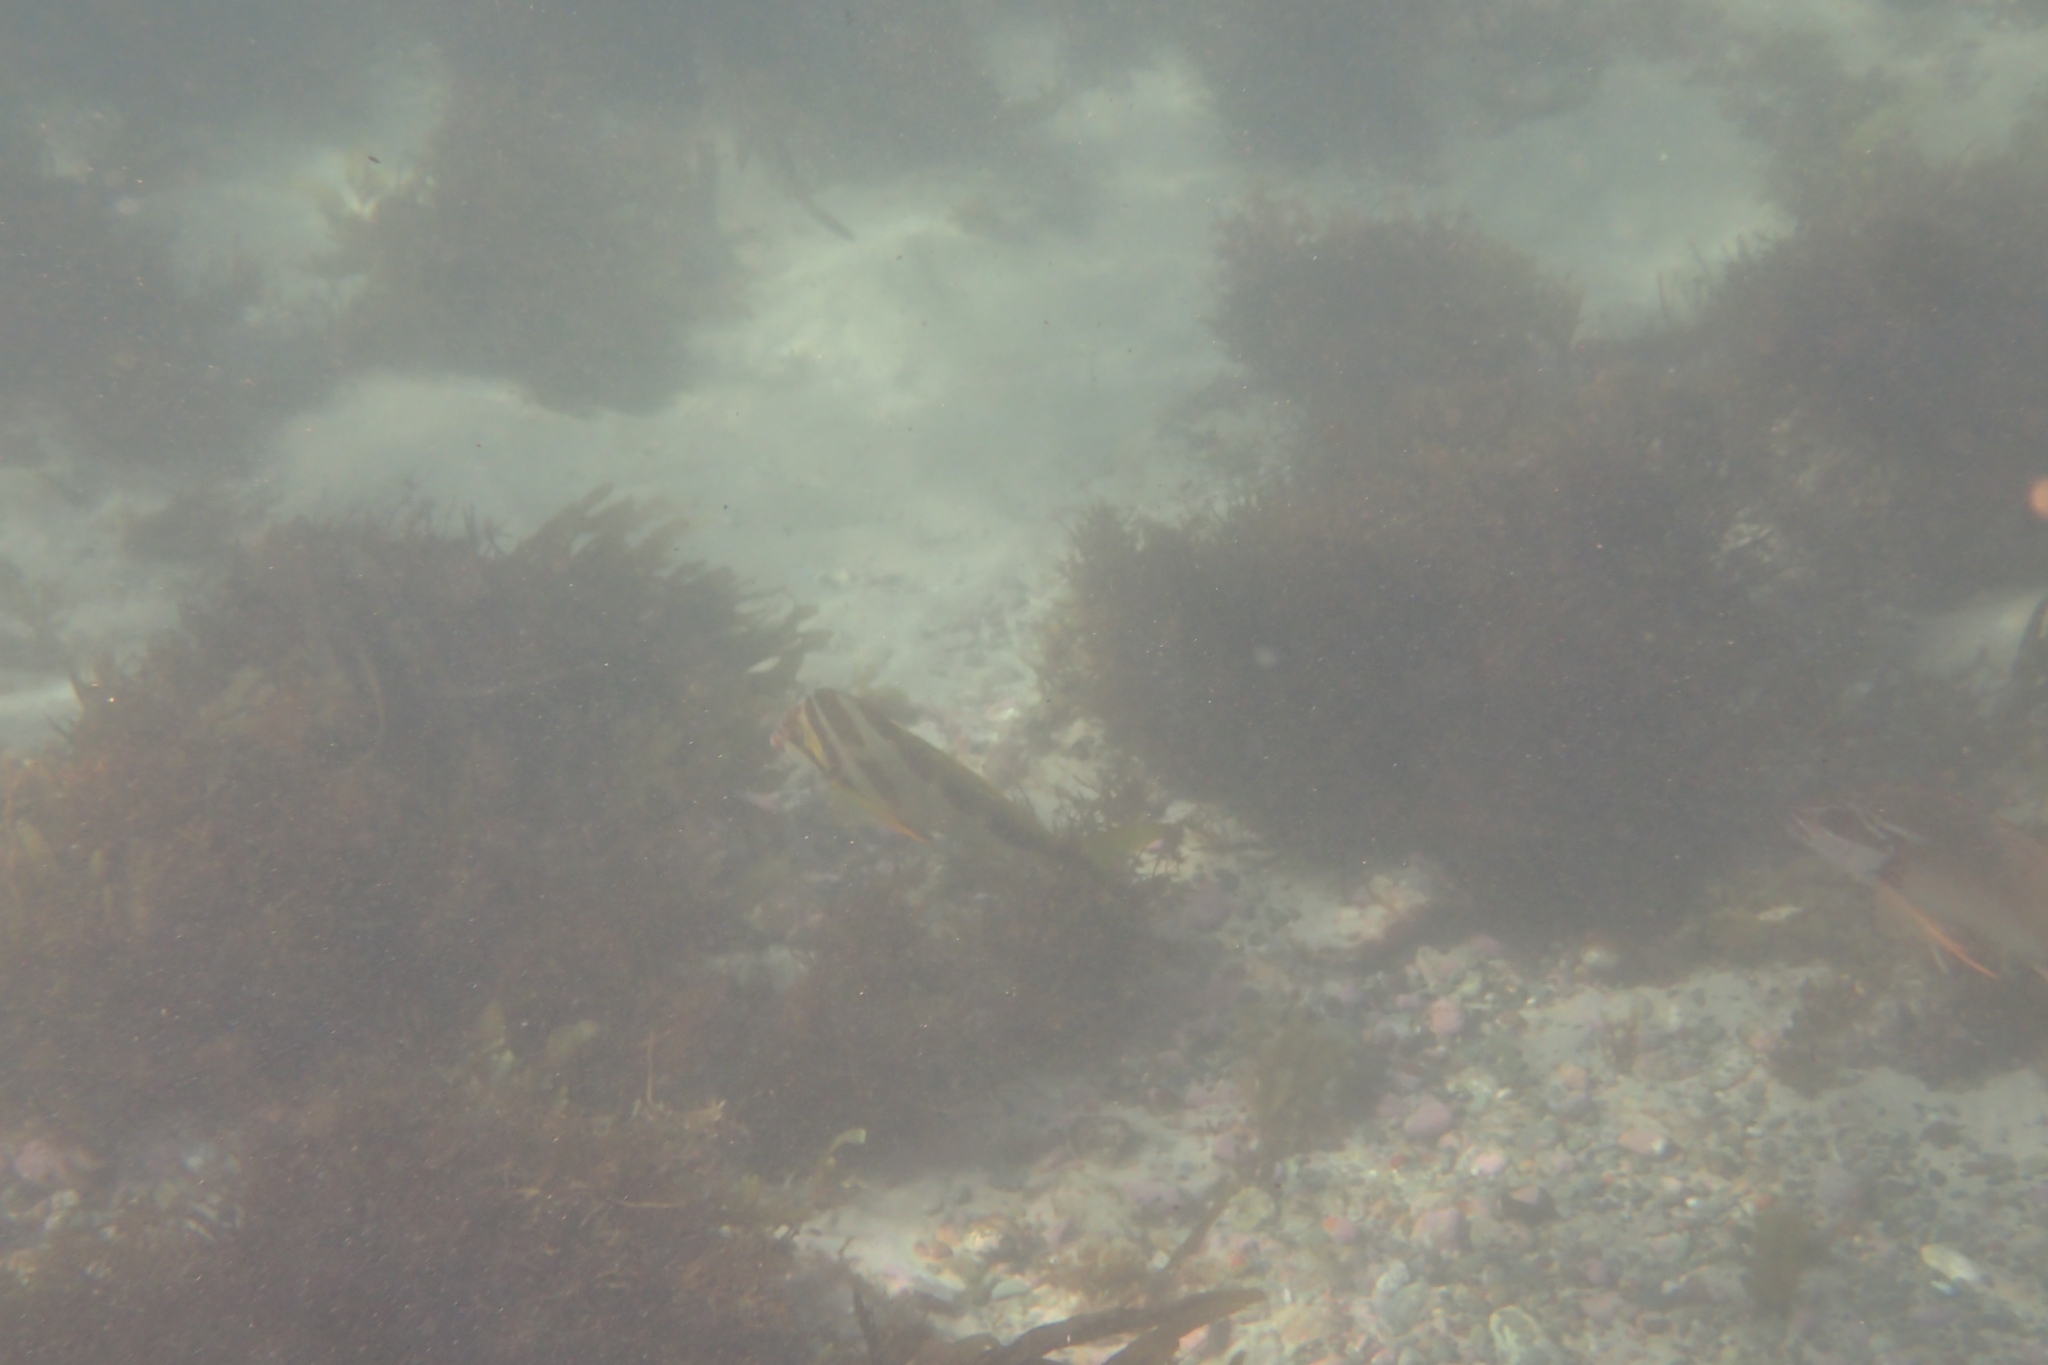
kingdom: Animalia
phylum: Chordata
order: Perciformes
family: Cheilodactylidae
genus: Cheilodactylus
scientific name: Cheilodactylus vestitus
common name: Crested morwong
